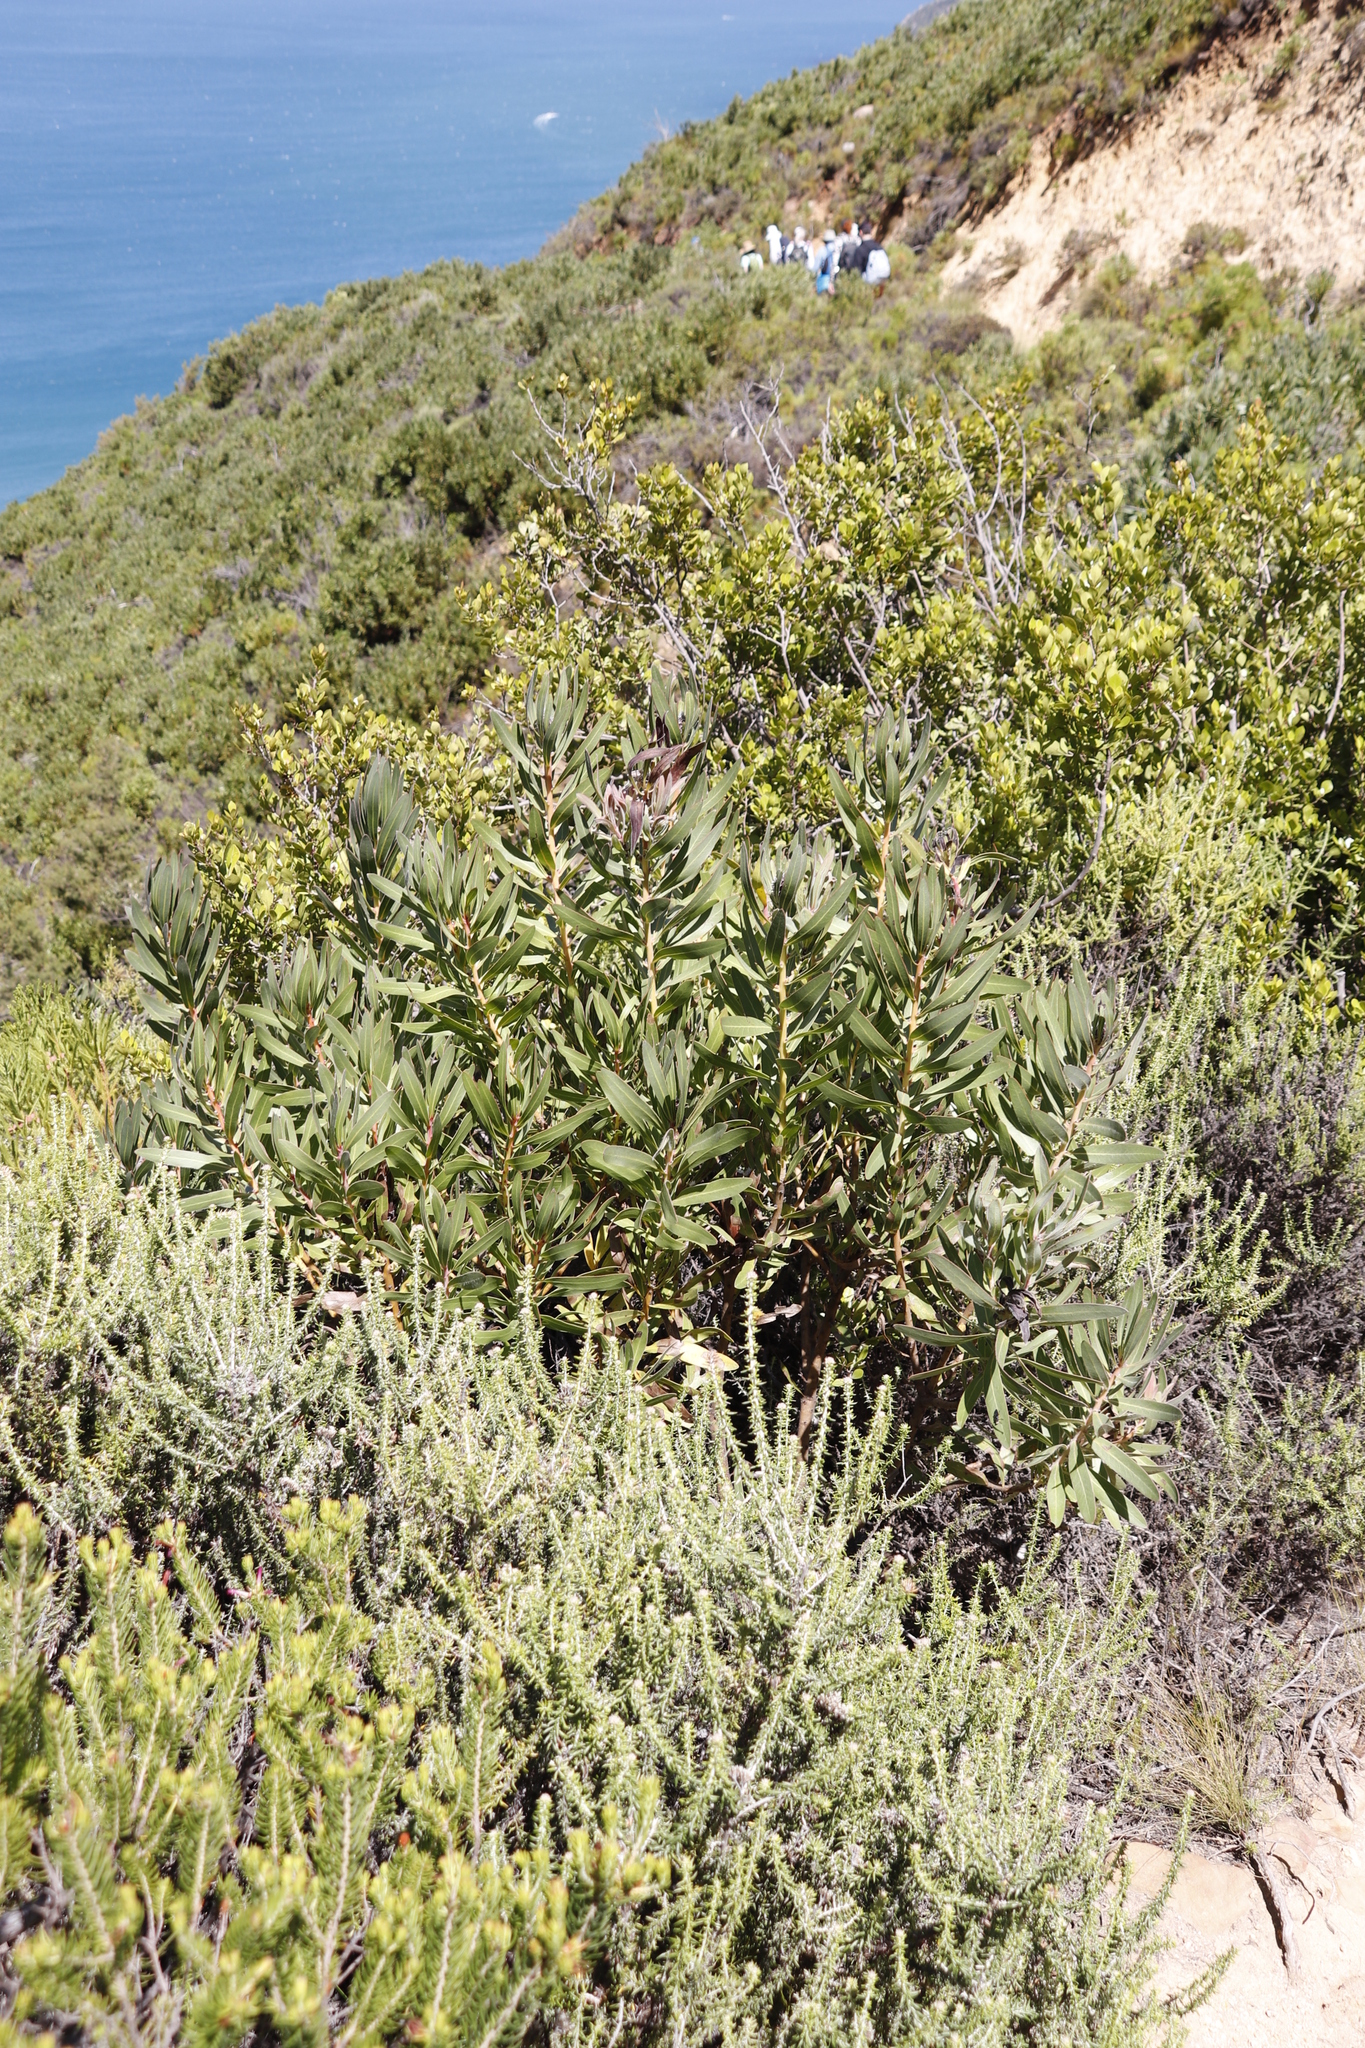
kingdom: Plantae
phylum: Tracheophyta
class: Magnoliopsida
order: Proteales
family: Proteaceae
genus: Protea
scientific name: Protea lepidocarpodendron
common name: Black-bearded protea
